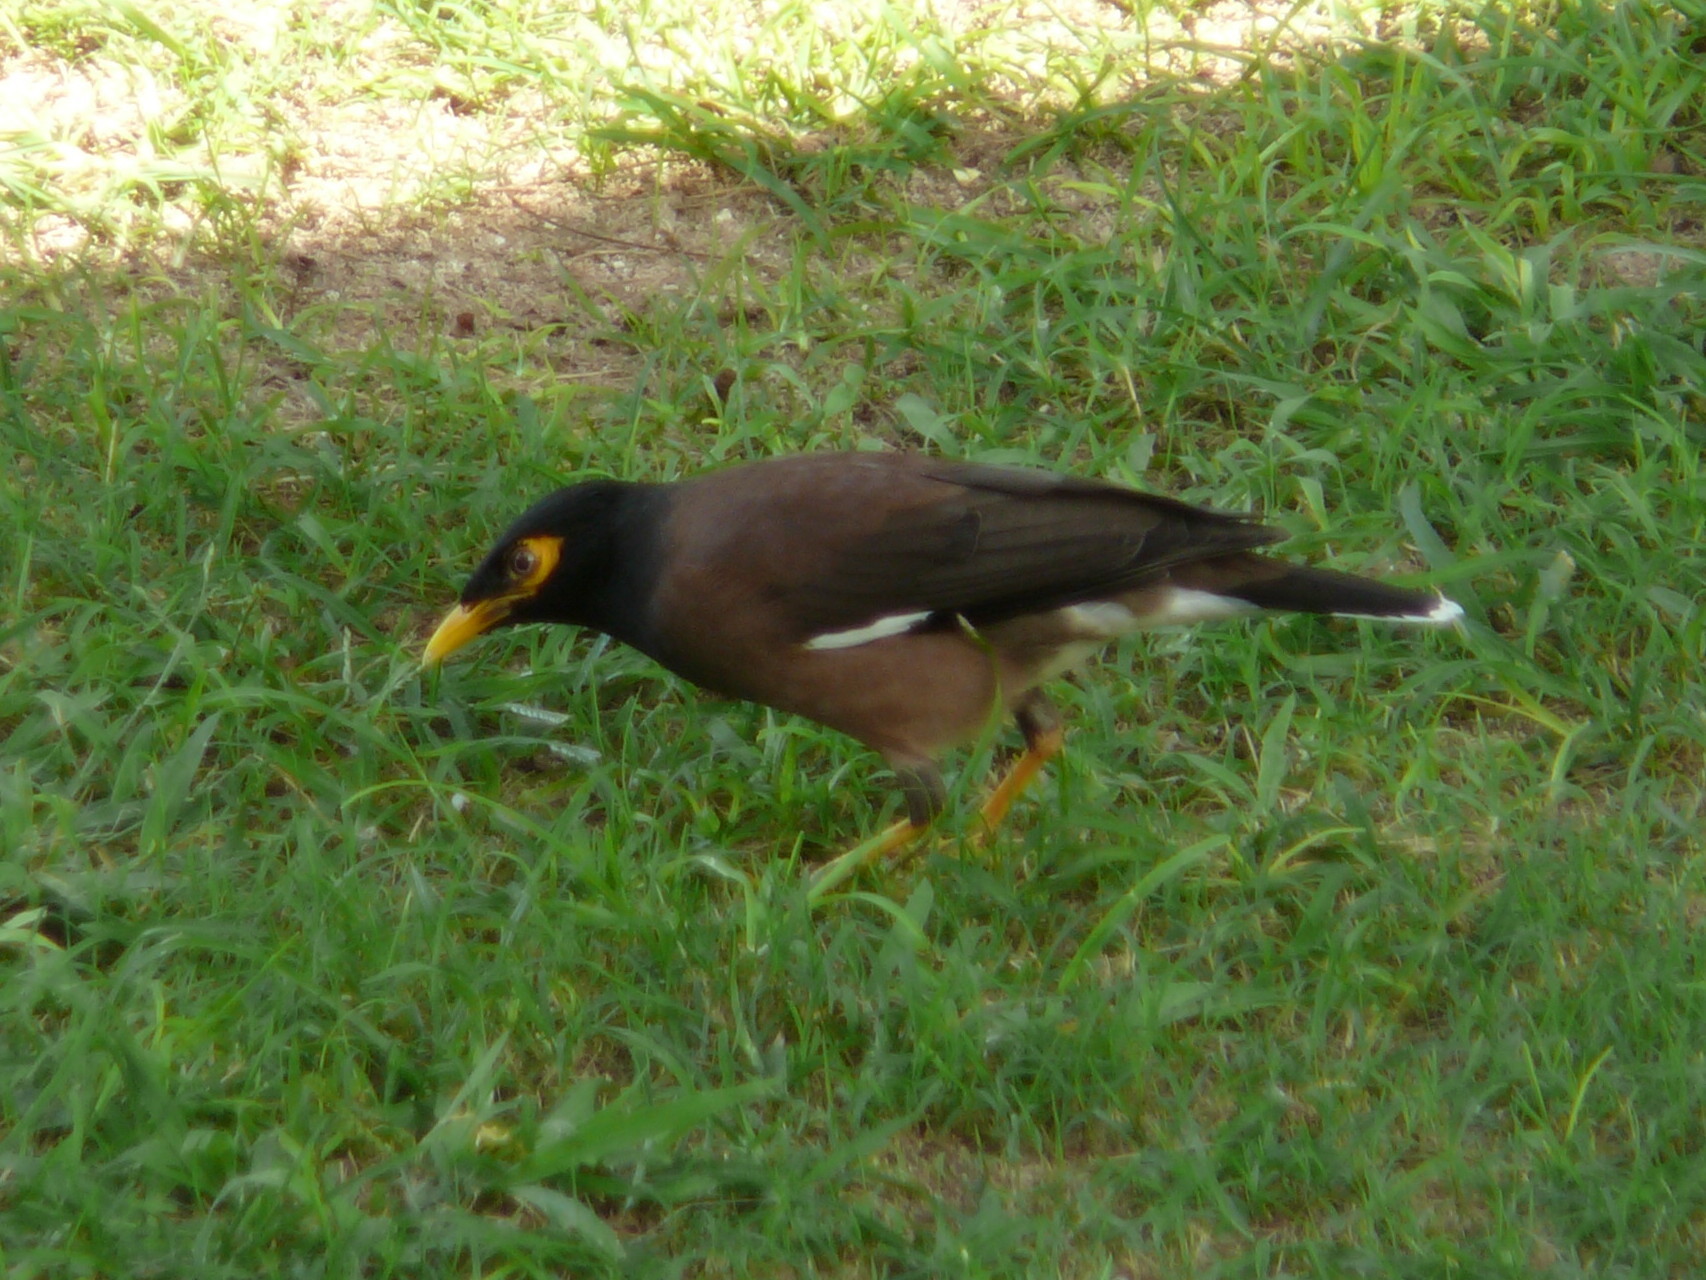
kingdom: Animalia
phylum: Chordata
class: Aves
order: Passeriformes
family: Sturnidae
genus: Acridotheres
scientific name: Acridotheres tristis
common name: Common myna
